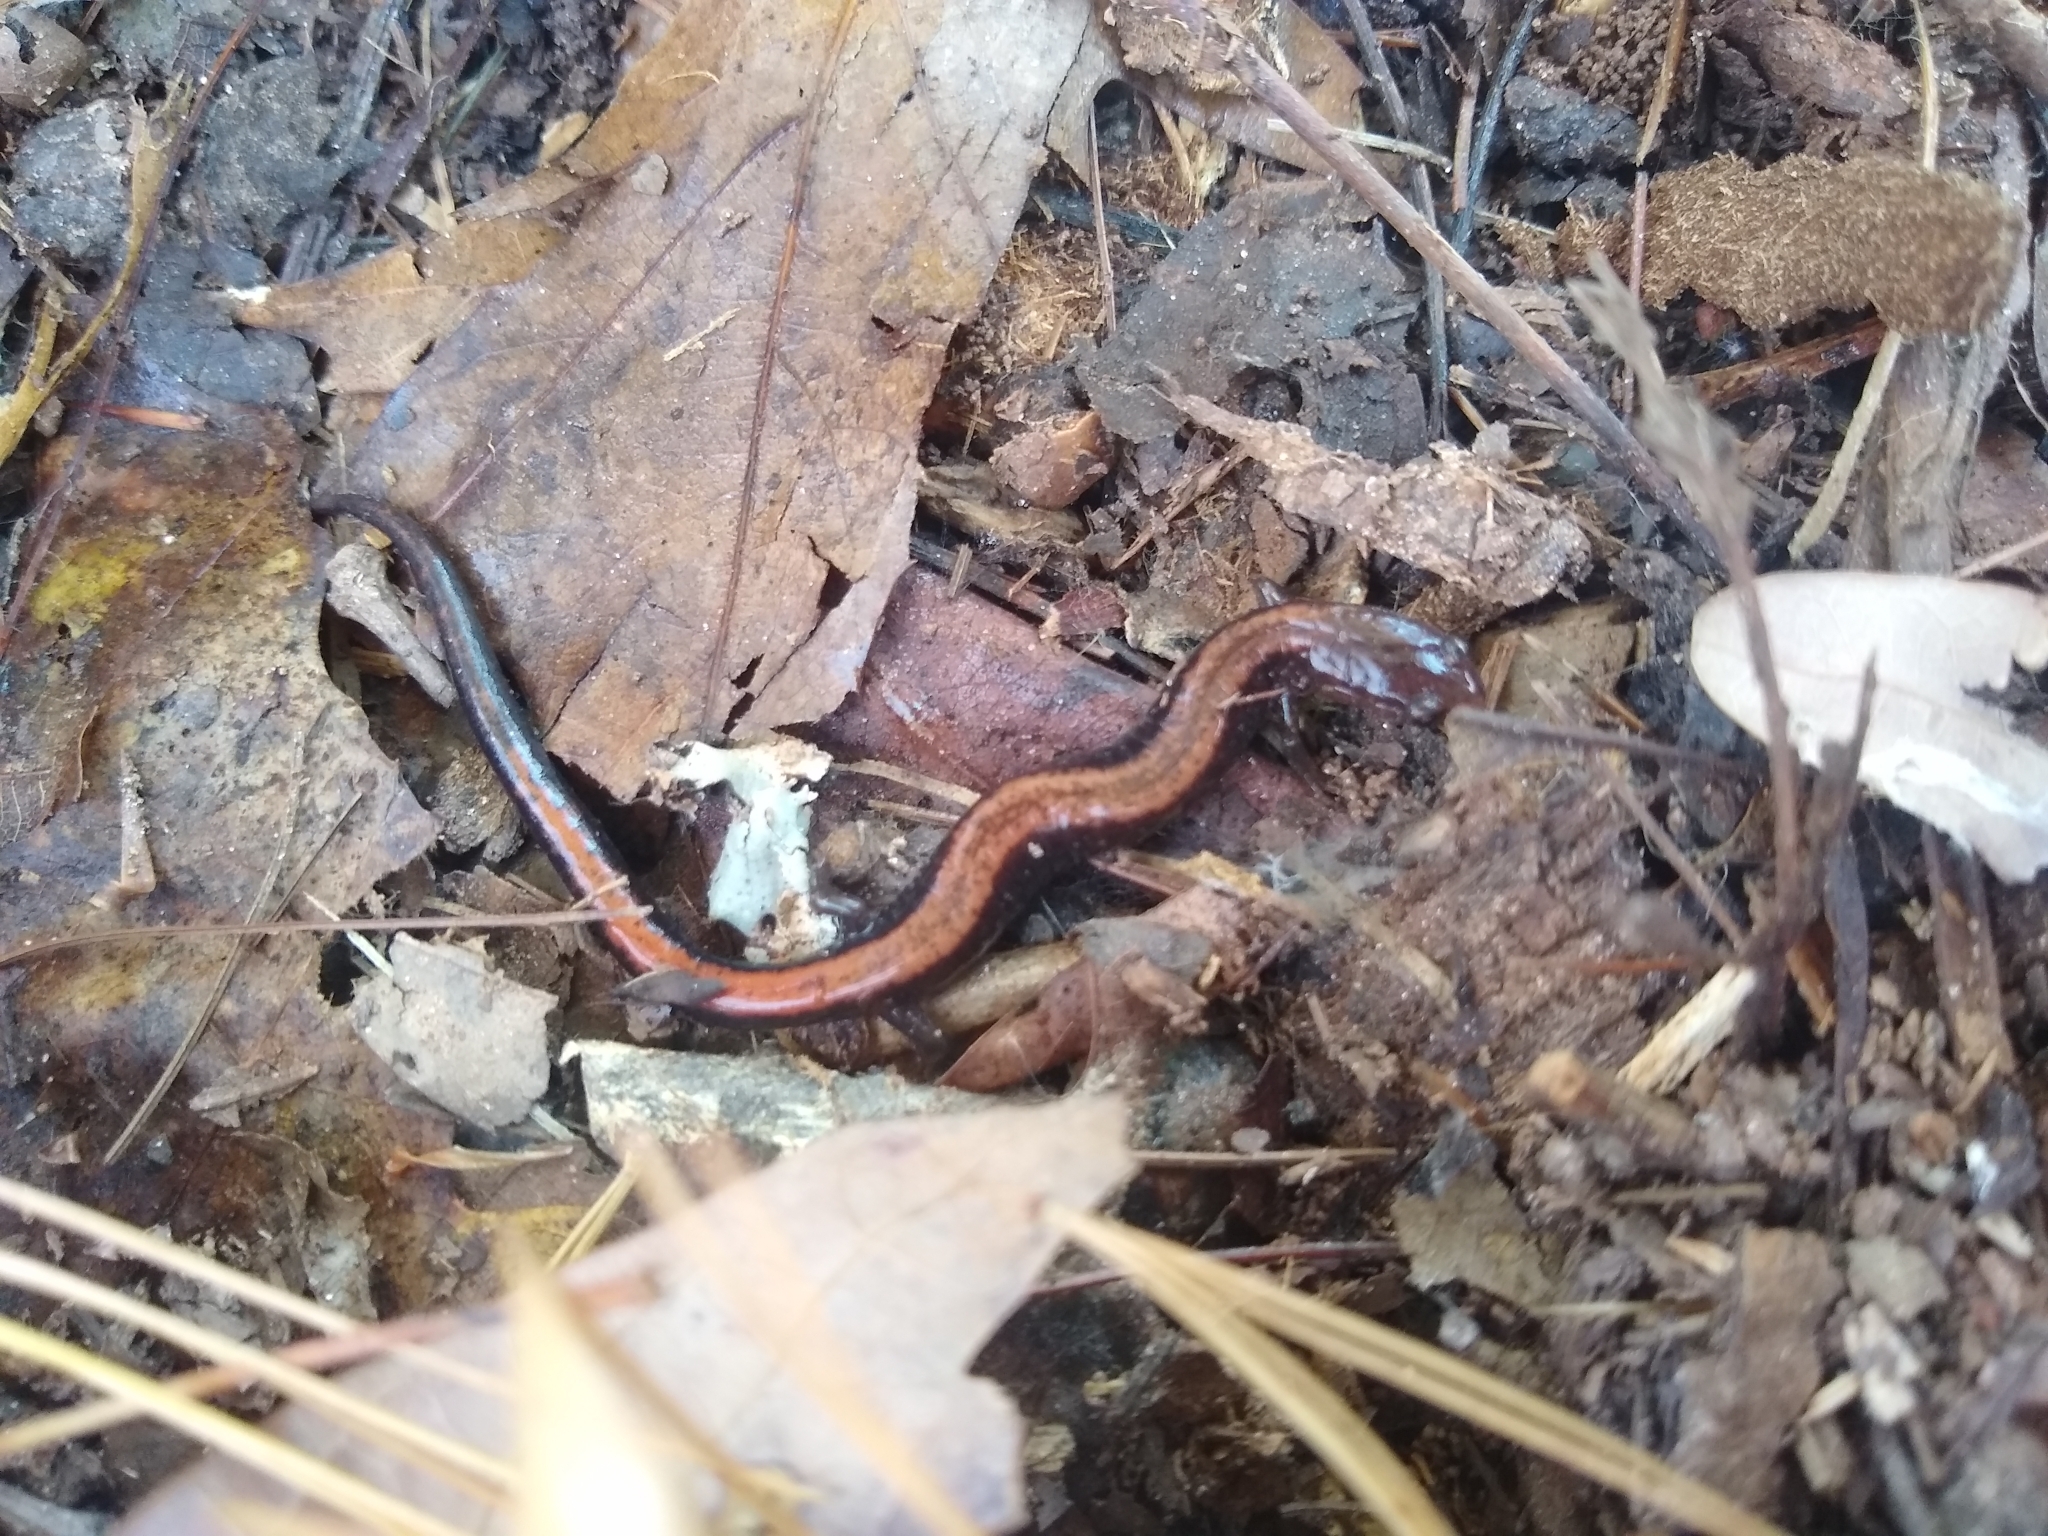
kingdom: Animalia
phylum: Chordata
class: Amphibia
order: Caudata
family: Plethodontidae
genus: Plethodon
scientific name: Plethodon cinereus
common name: Redback salamander
